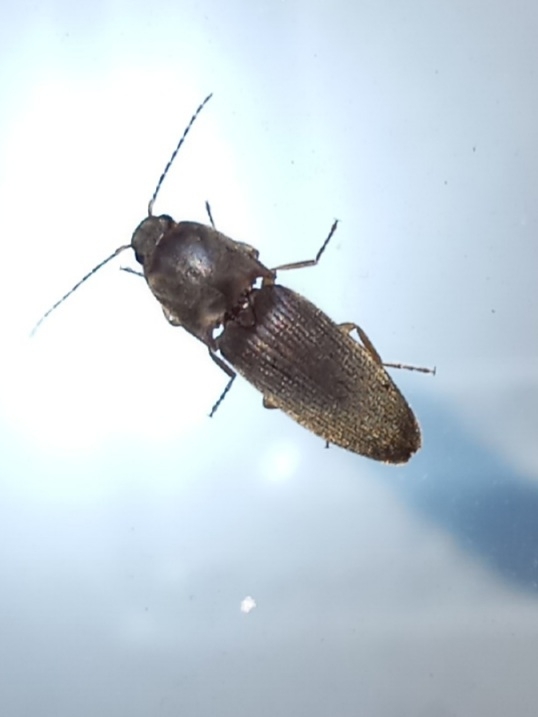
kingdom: Animalia
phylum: Arthropoda
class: Insecta
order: Coleoptera
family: Elateridae
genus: Conoderus
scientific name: Conoderus exsul
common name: Click beetle
